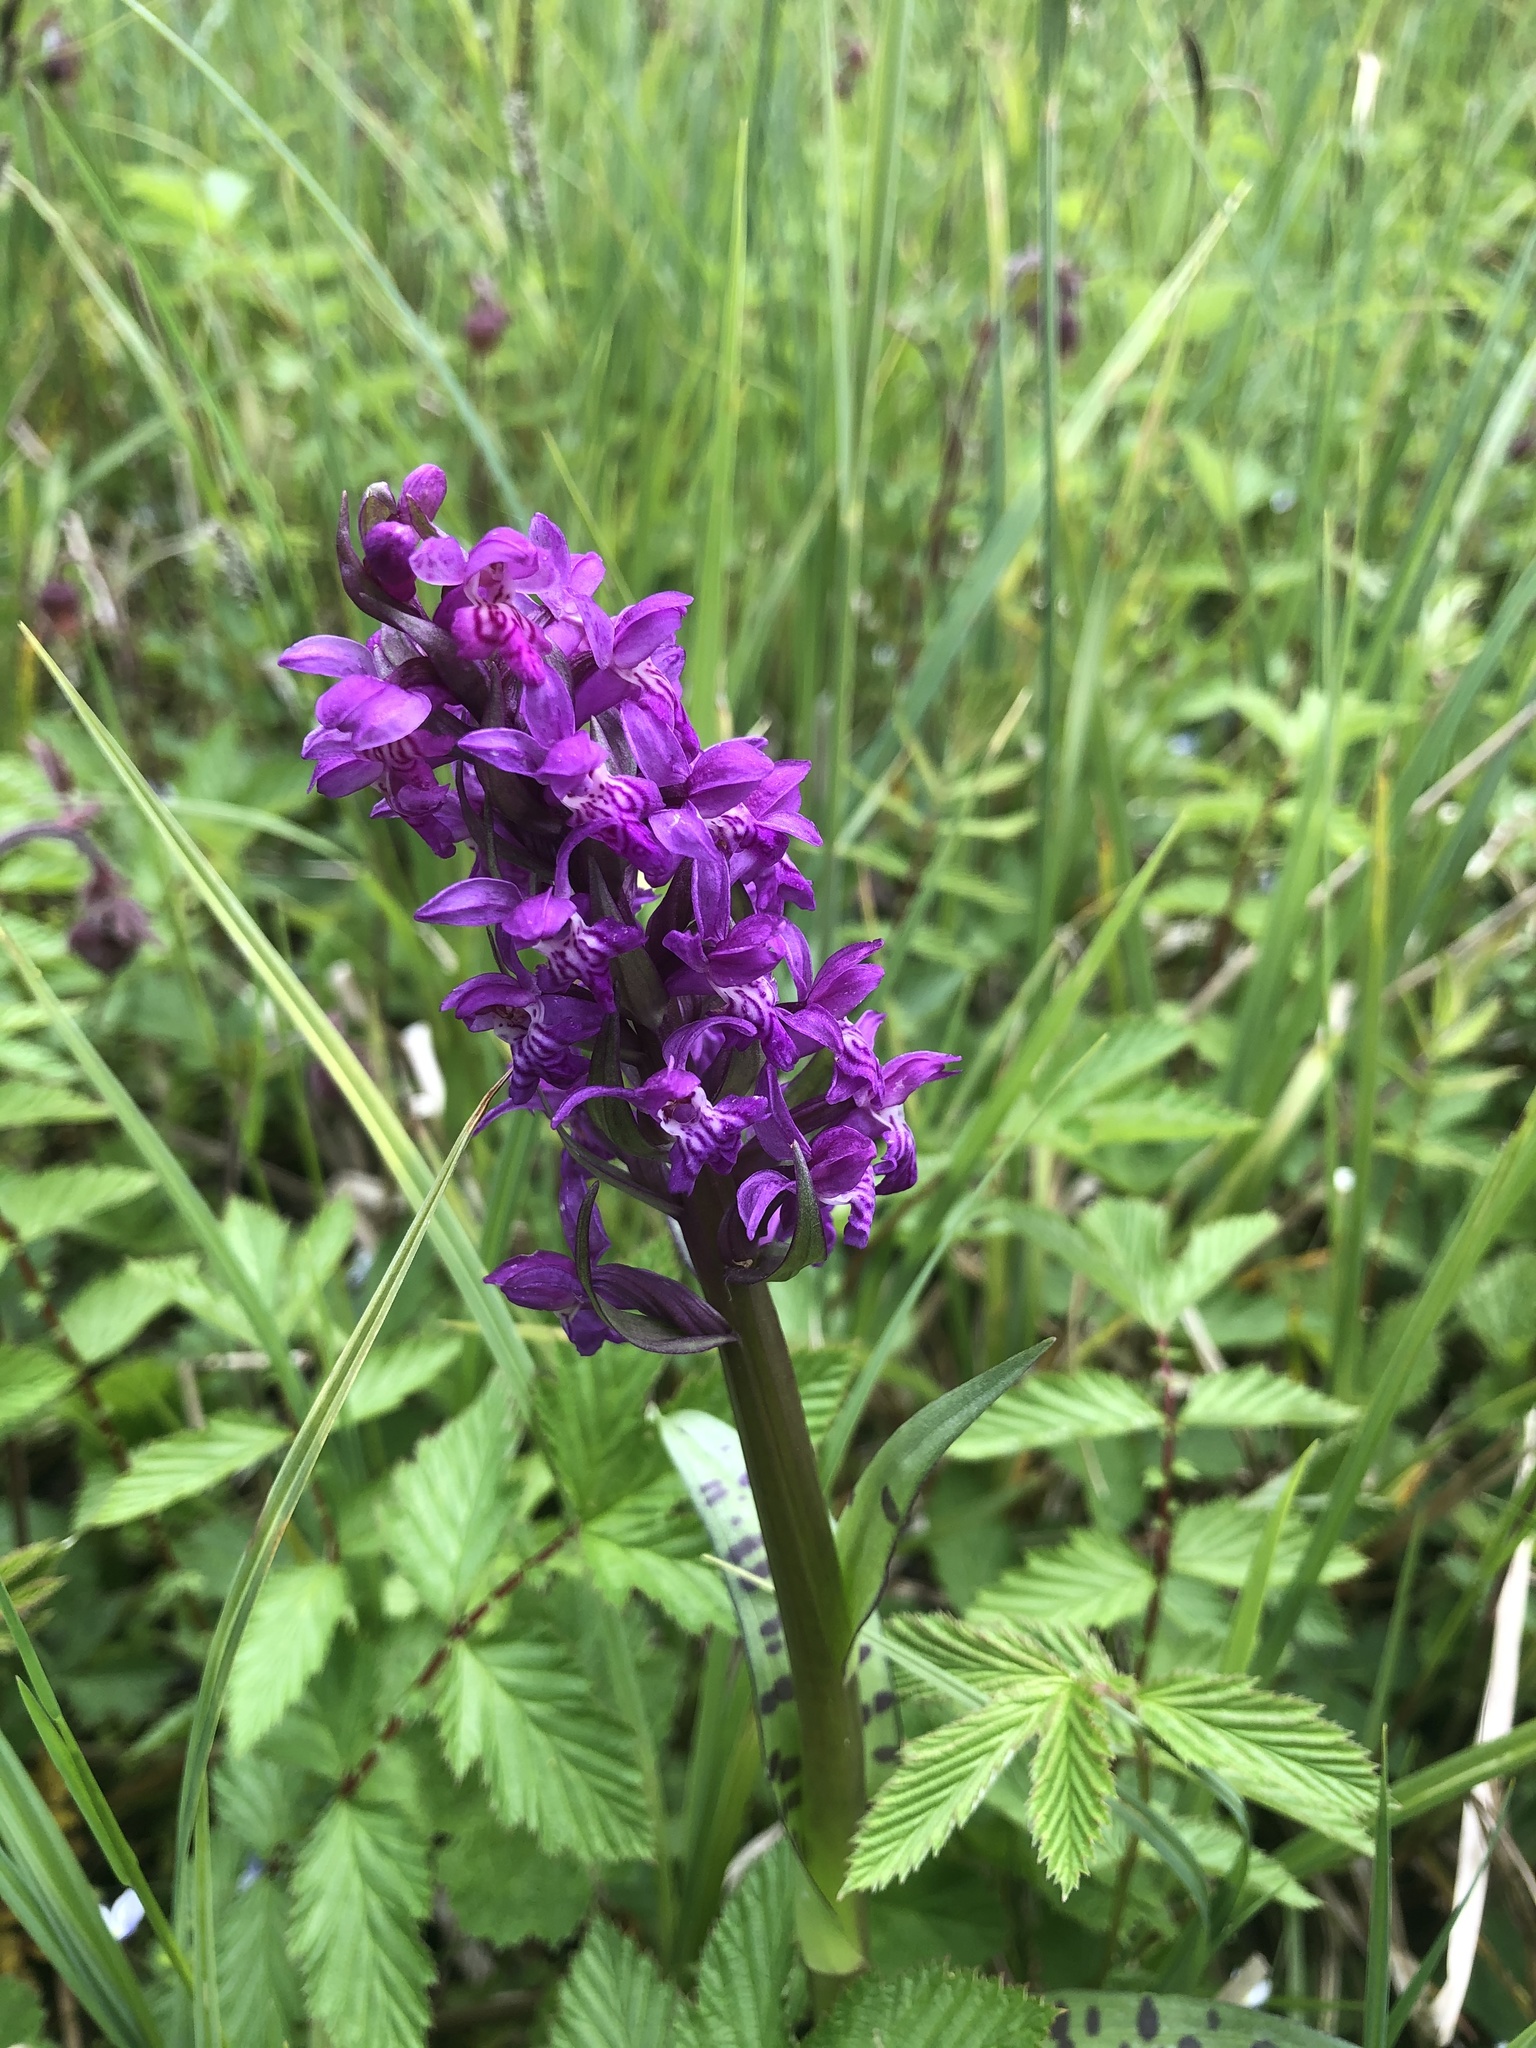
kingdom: Plantae
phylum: Tracheophyta
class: Liliopsida
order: Asparagales
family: Orchidaceae
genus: Dactylorhiza
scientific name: Dactylorhiza majalis
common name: Marsh orchid
